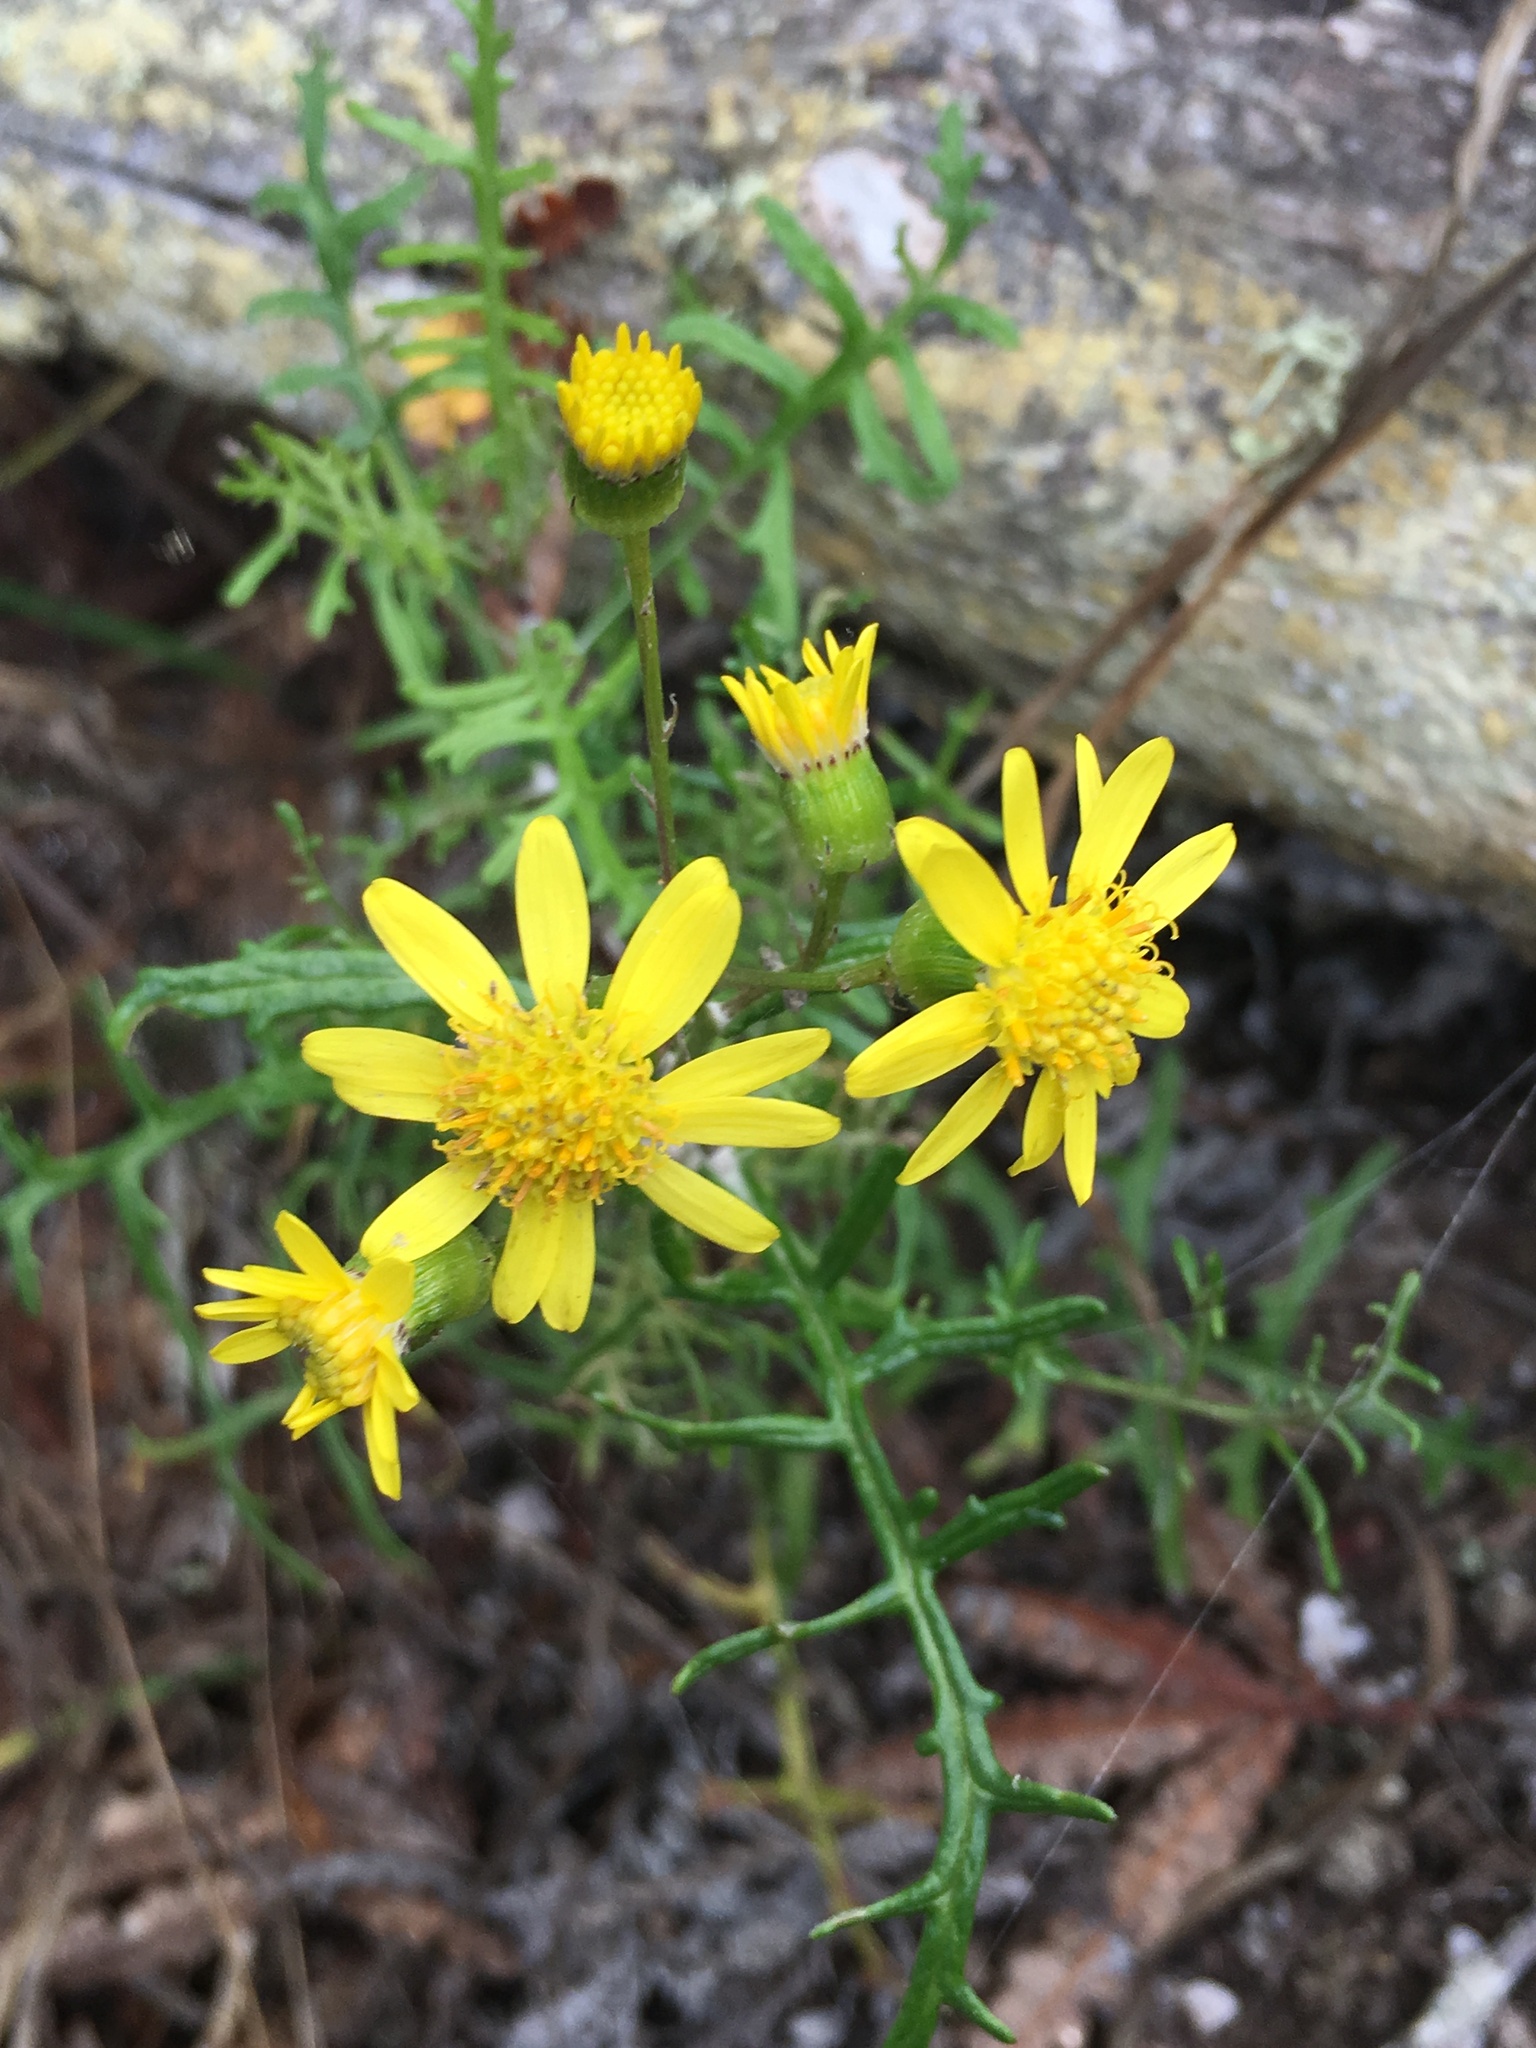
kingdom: Plantae
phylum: Tracheophyta
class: Magnoliopsida
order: Asterales
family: Asteraceae
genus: Senecio
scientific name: Senecio lyonii
